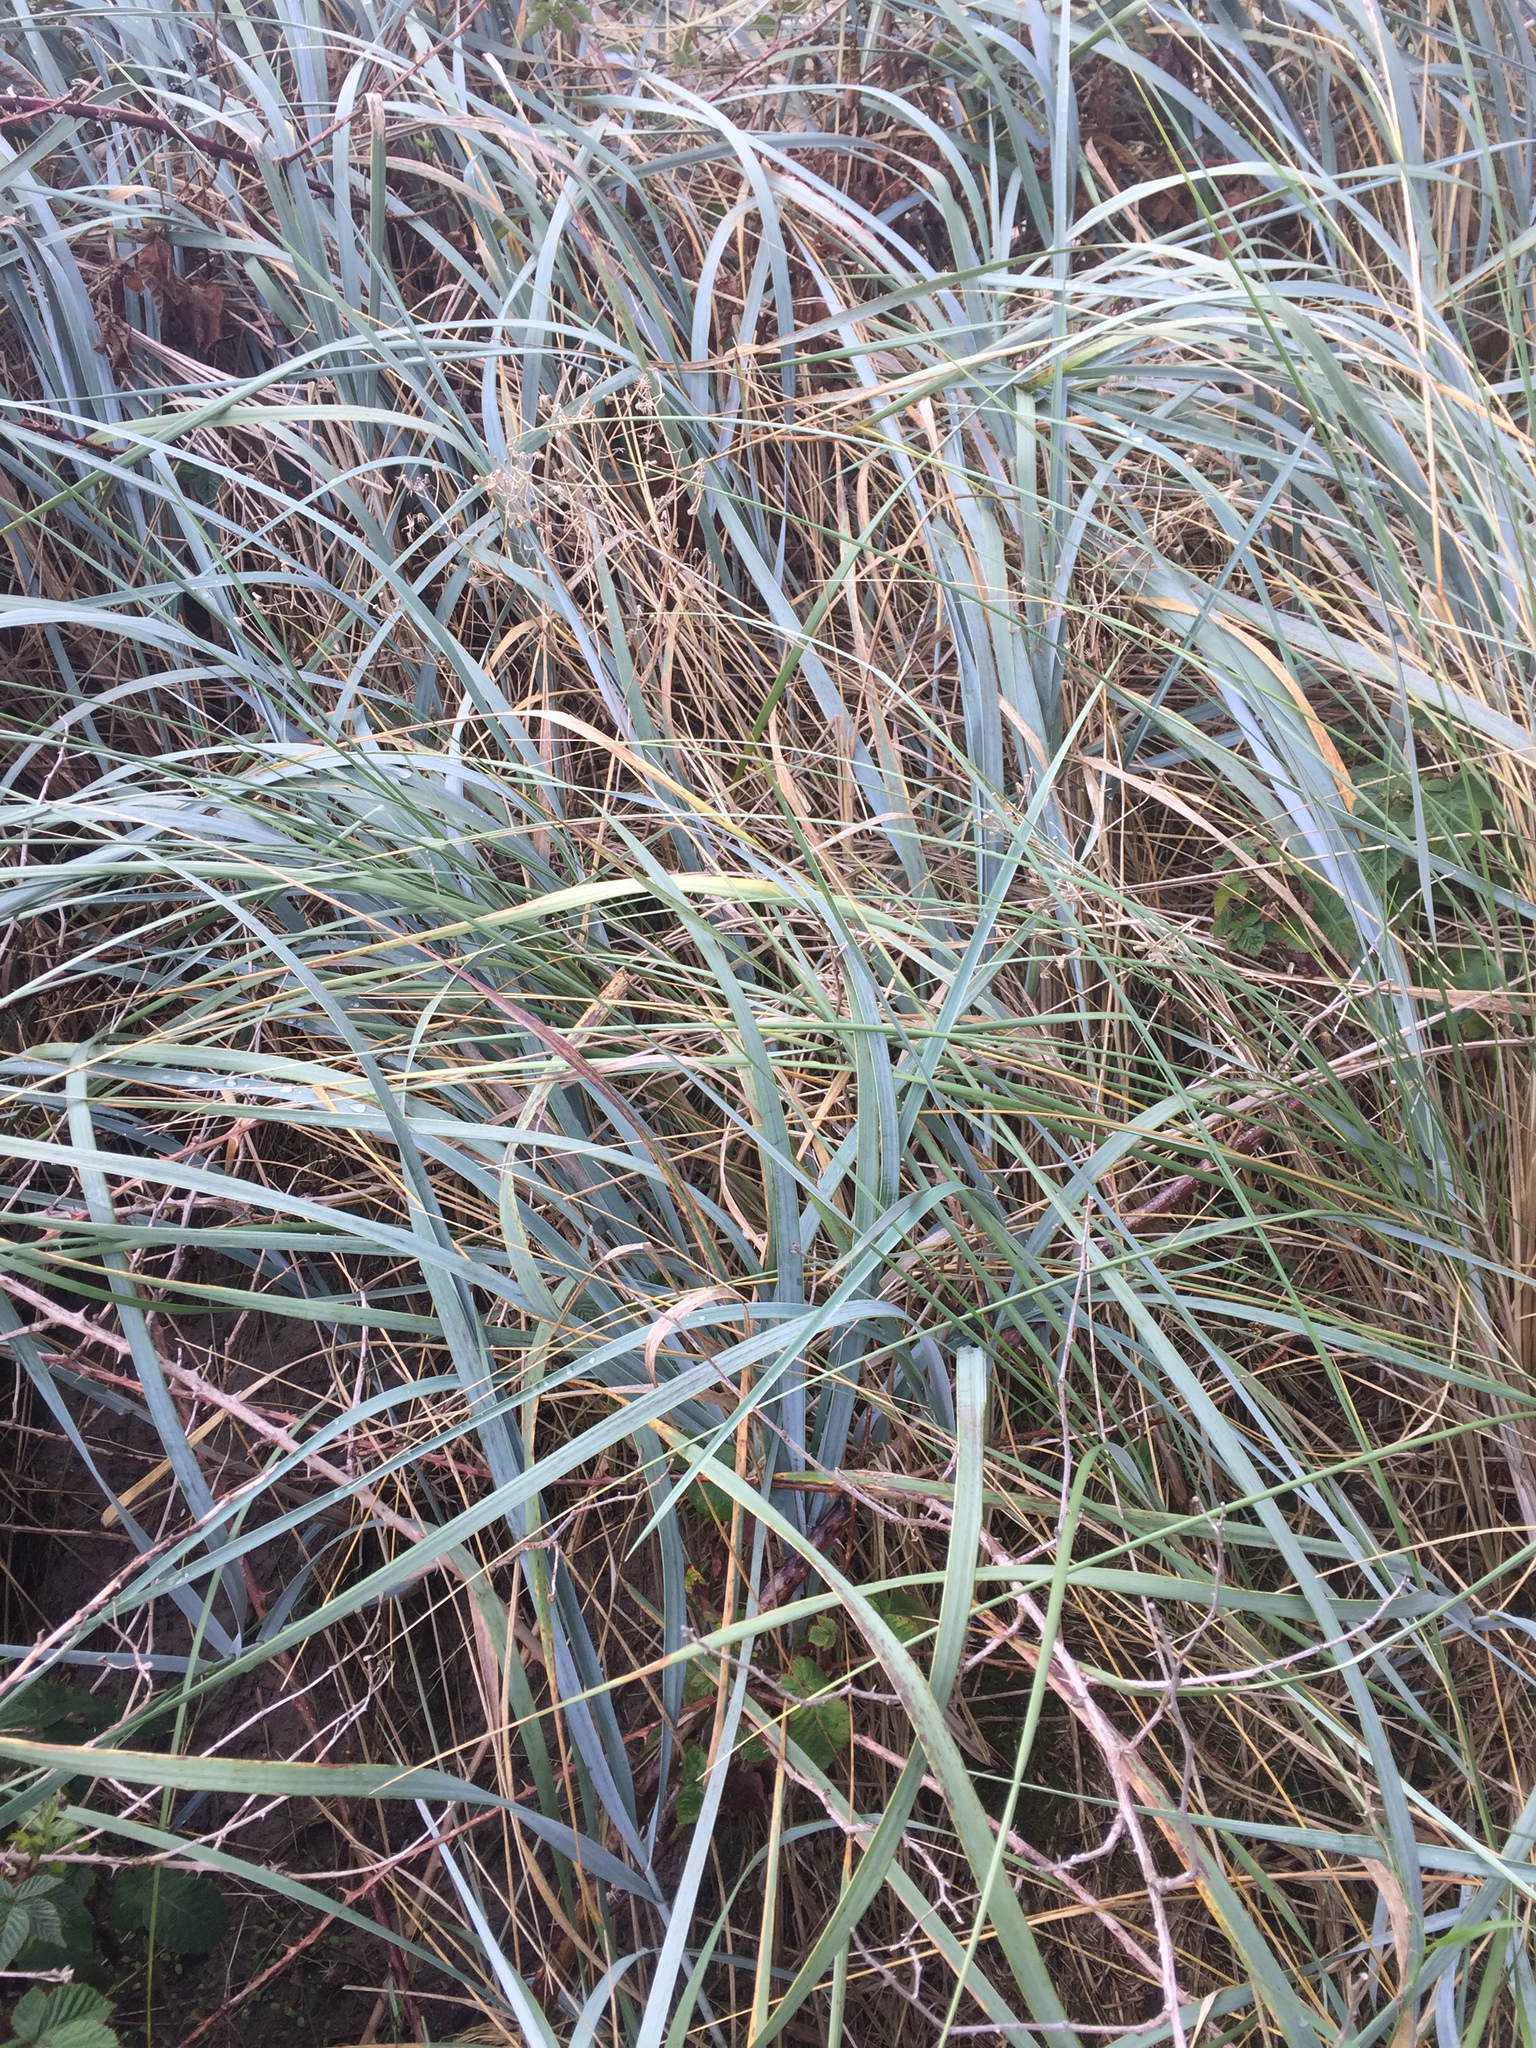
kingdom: Plantae
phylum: Tracheophyta
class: Liliopsida
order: Poales
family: Poaceae
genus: Leymus
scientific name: Leymus arenarius
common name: Lyme-grass
